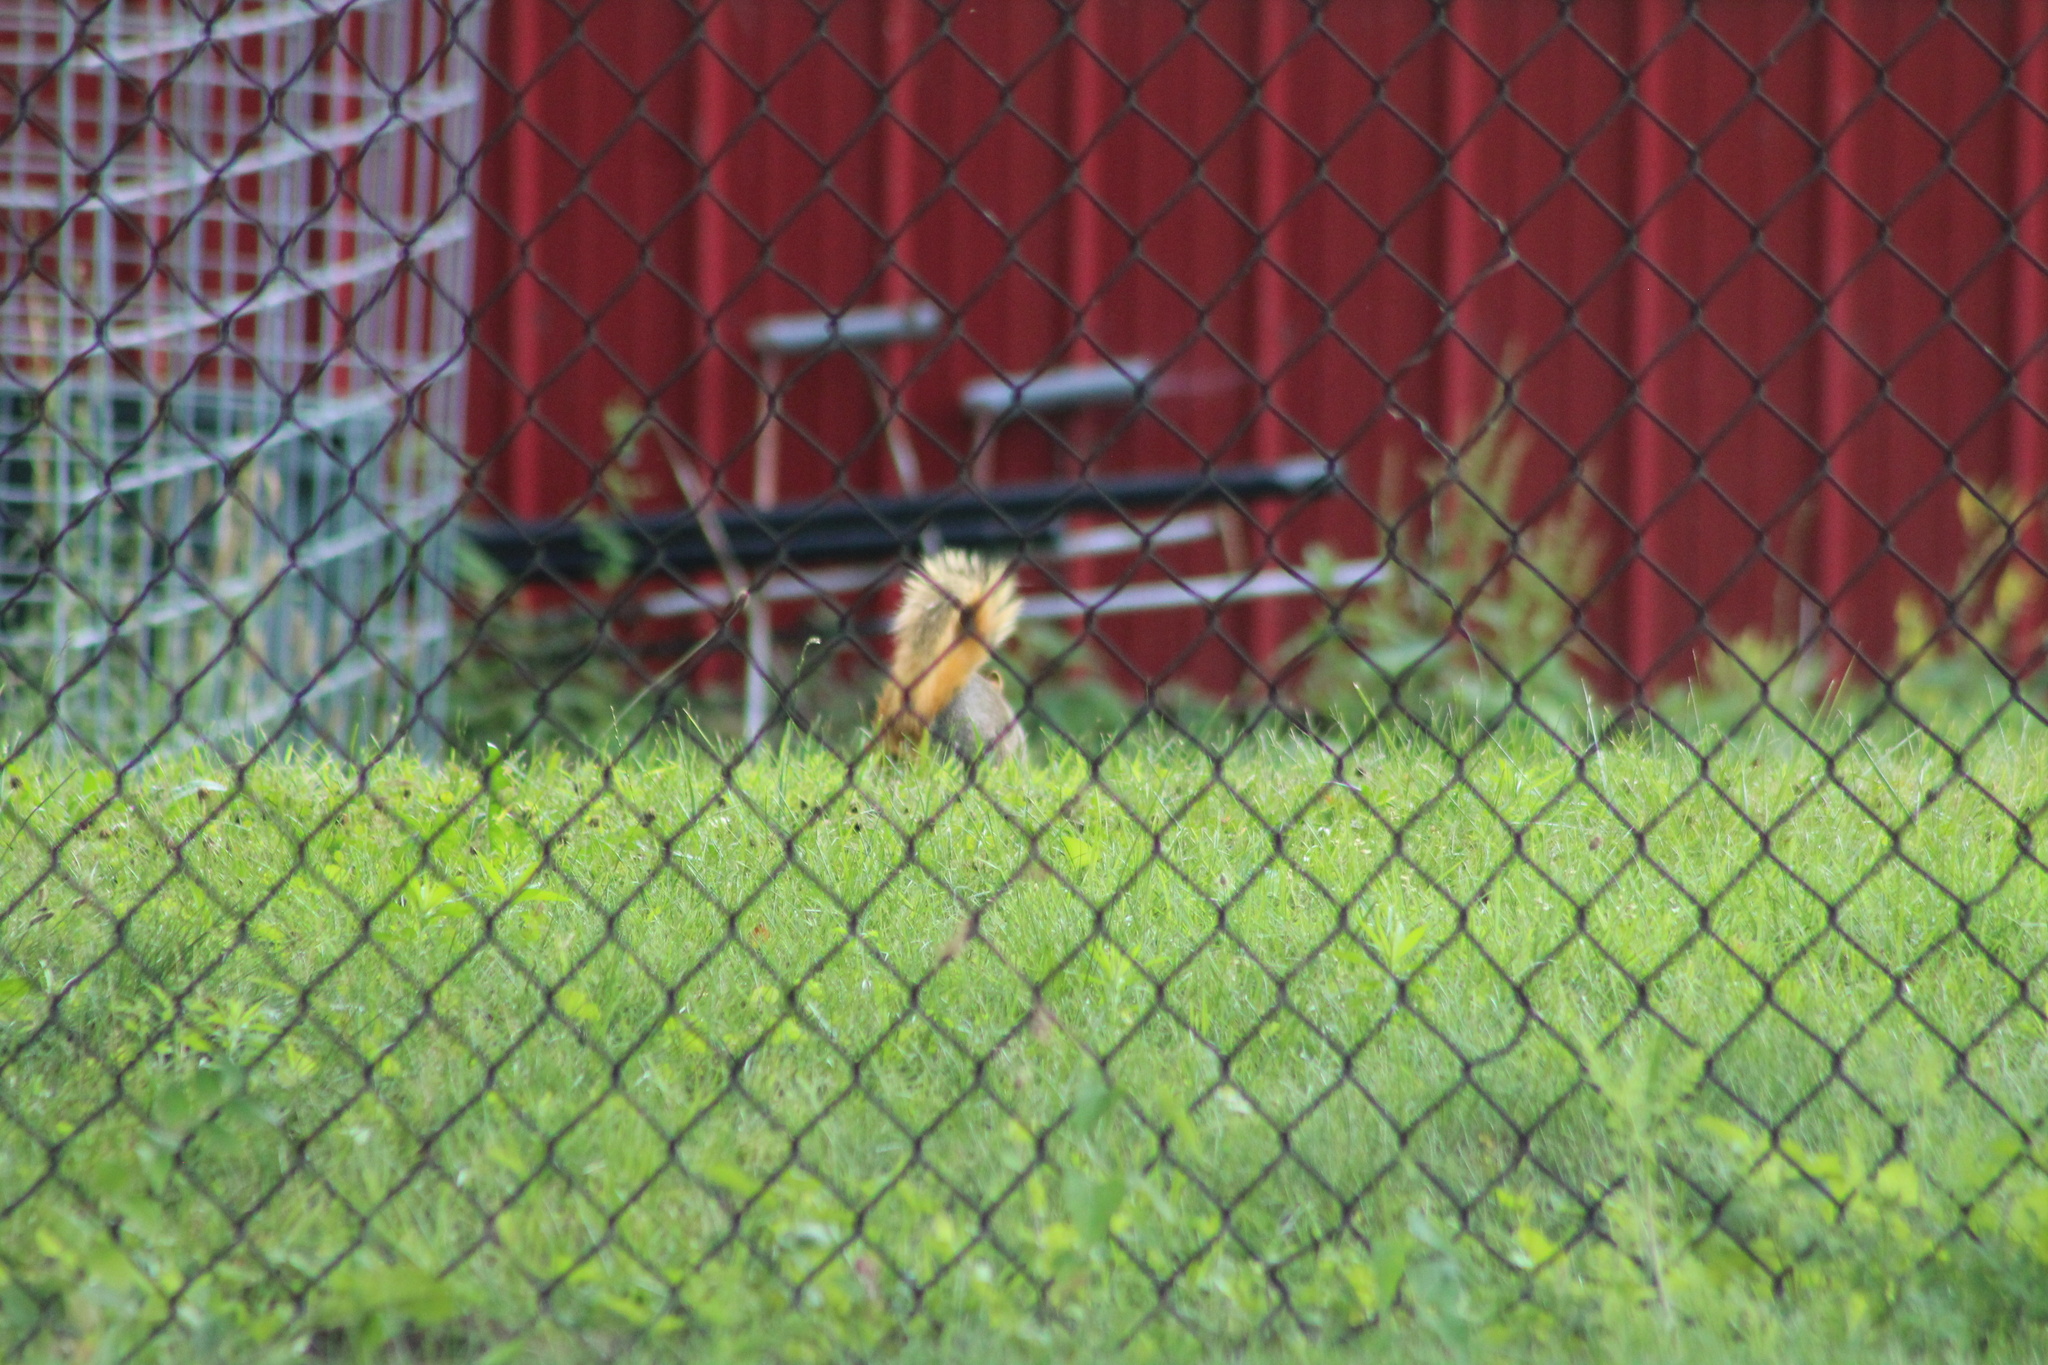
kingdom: Animalia
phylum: Chordata
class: Mammalia
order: Rodentia
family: Sciuridae
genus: Sciurus
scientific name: Sciurus niger
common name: Fox squirrel
